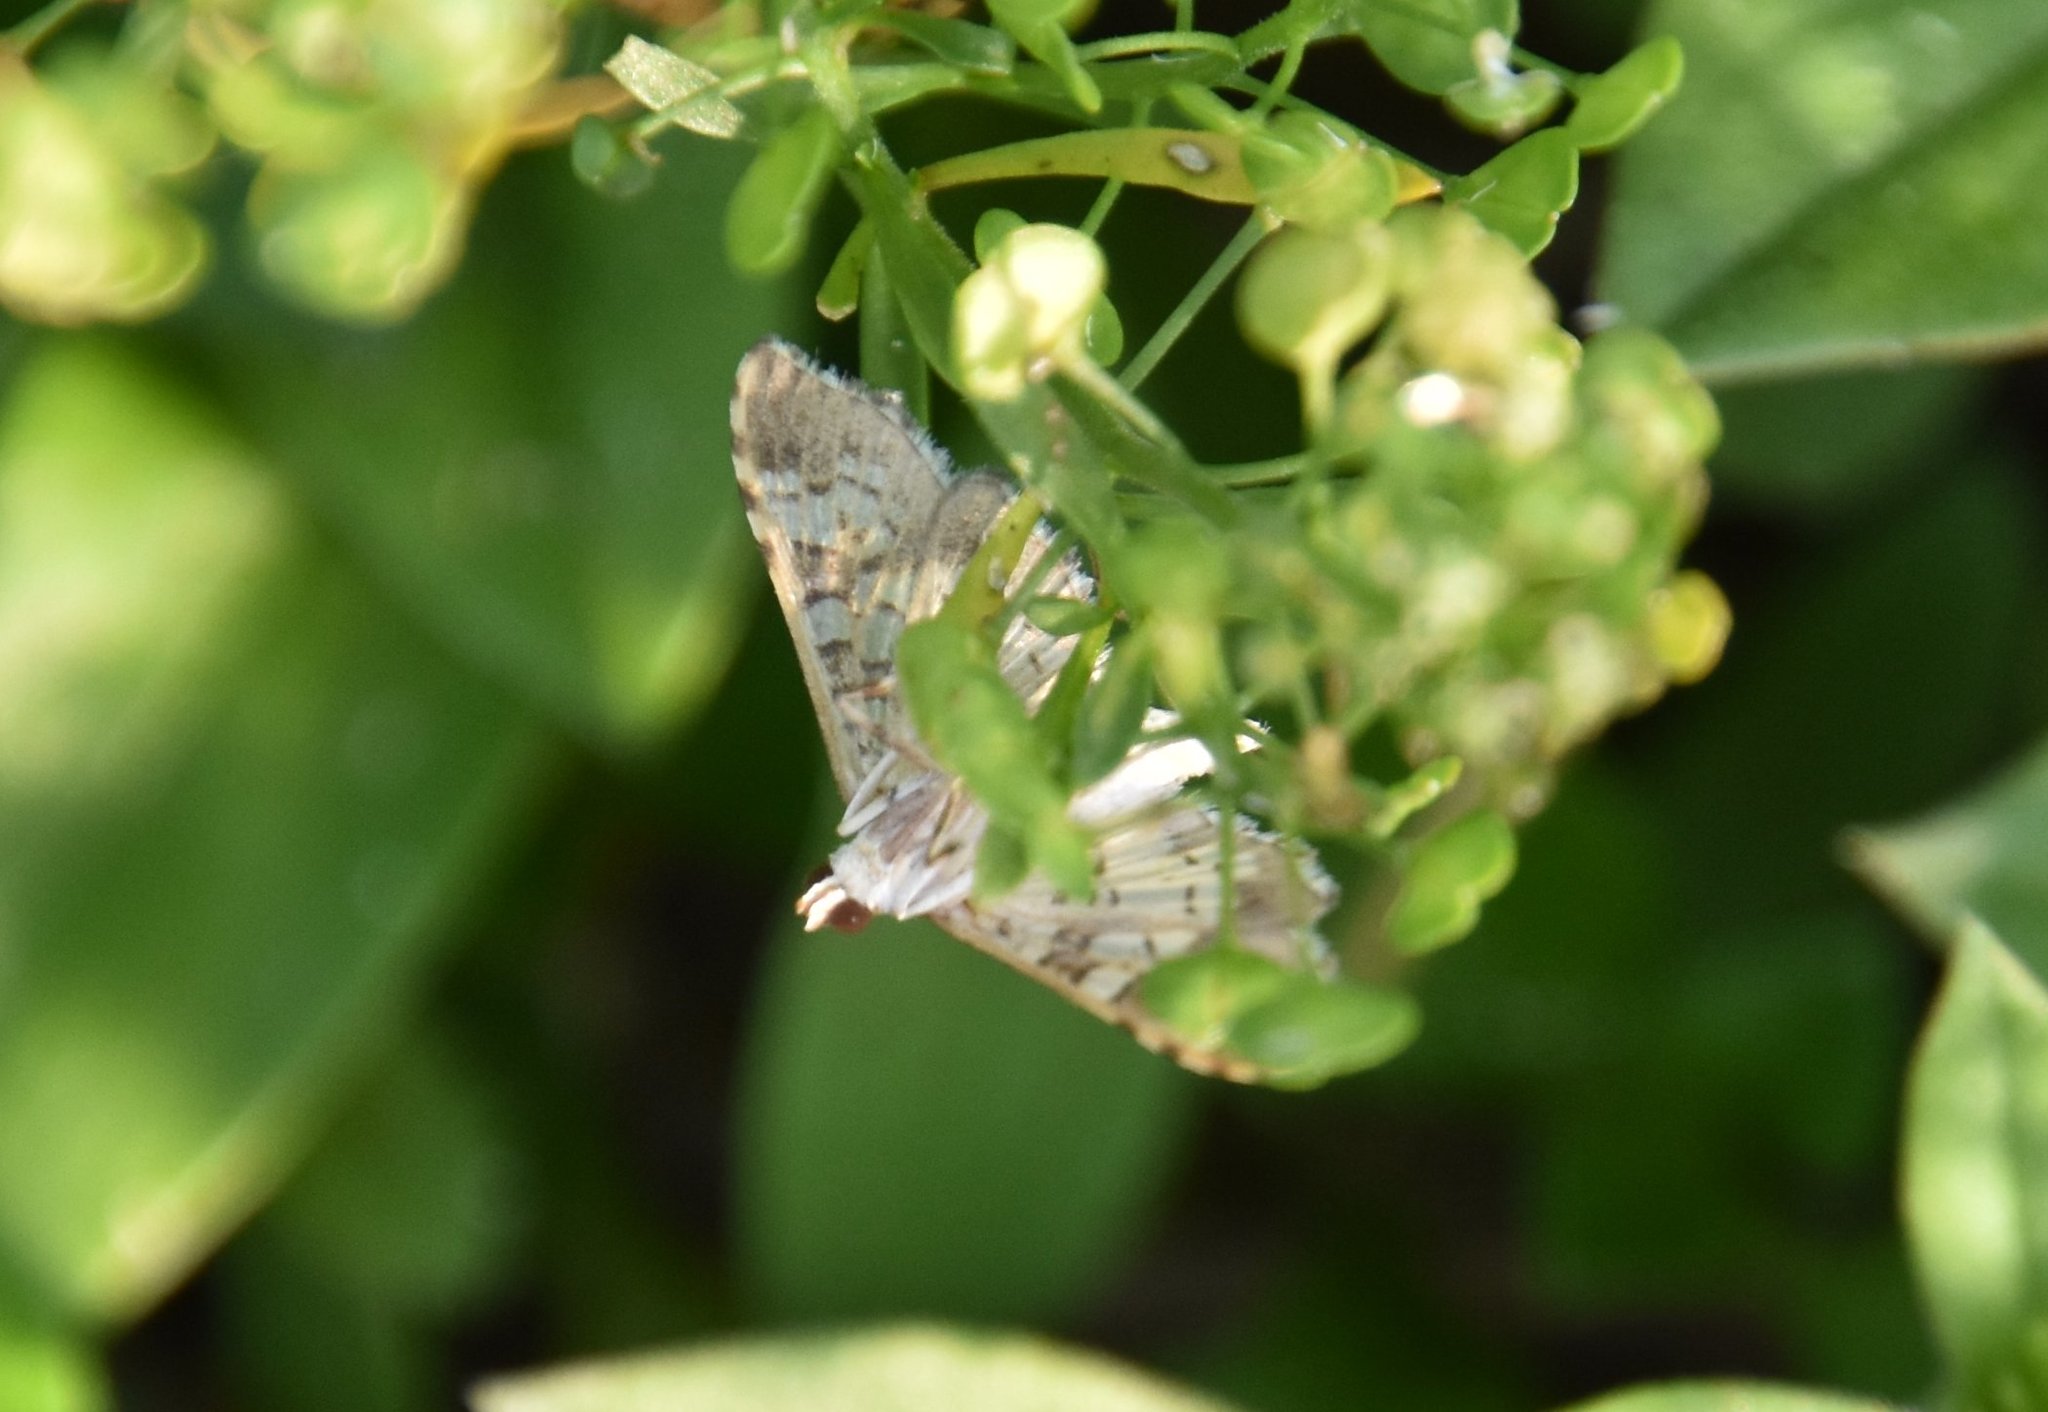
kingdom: Animalia
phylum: Arthropoda
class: Insecta
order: Lepidoptera
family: Crambidae
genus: Samea
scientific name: Samea ecclesialis
